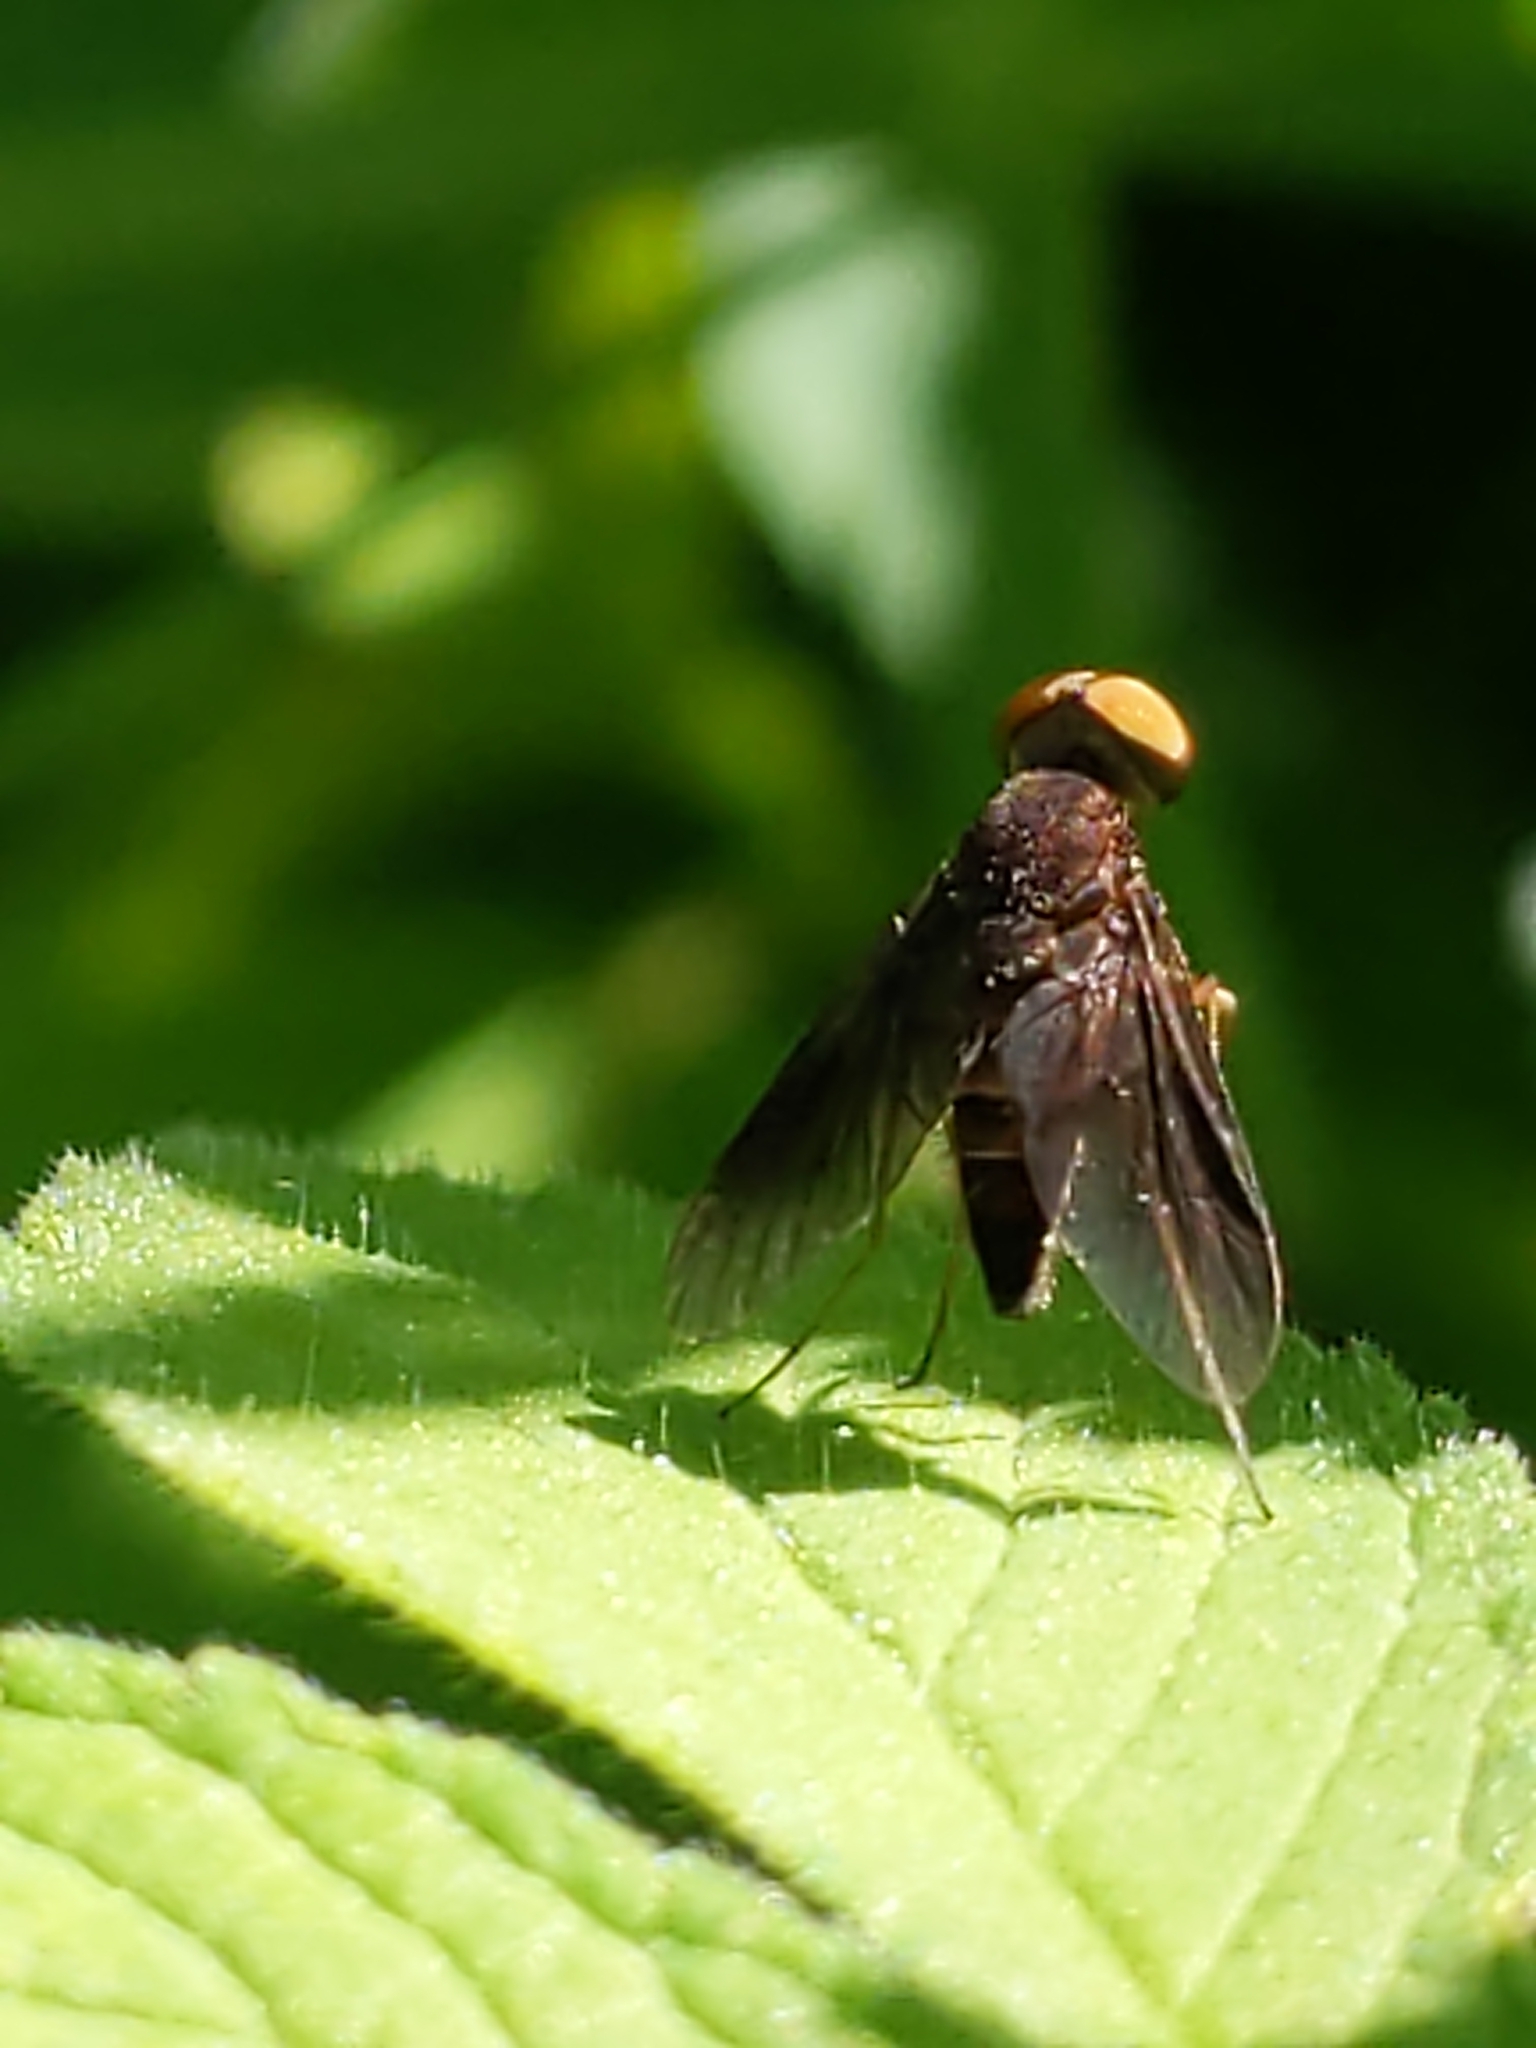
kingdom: Animalia
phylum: Arthropoda
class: Insecta
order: Diptera
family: Rhagionidae
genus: Chrysopilus
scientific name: Chrysopilus quadratus
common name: Quadrate snipe fly
